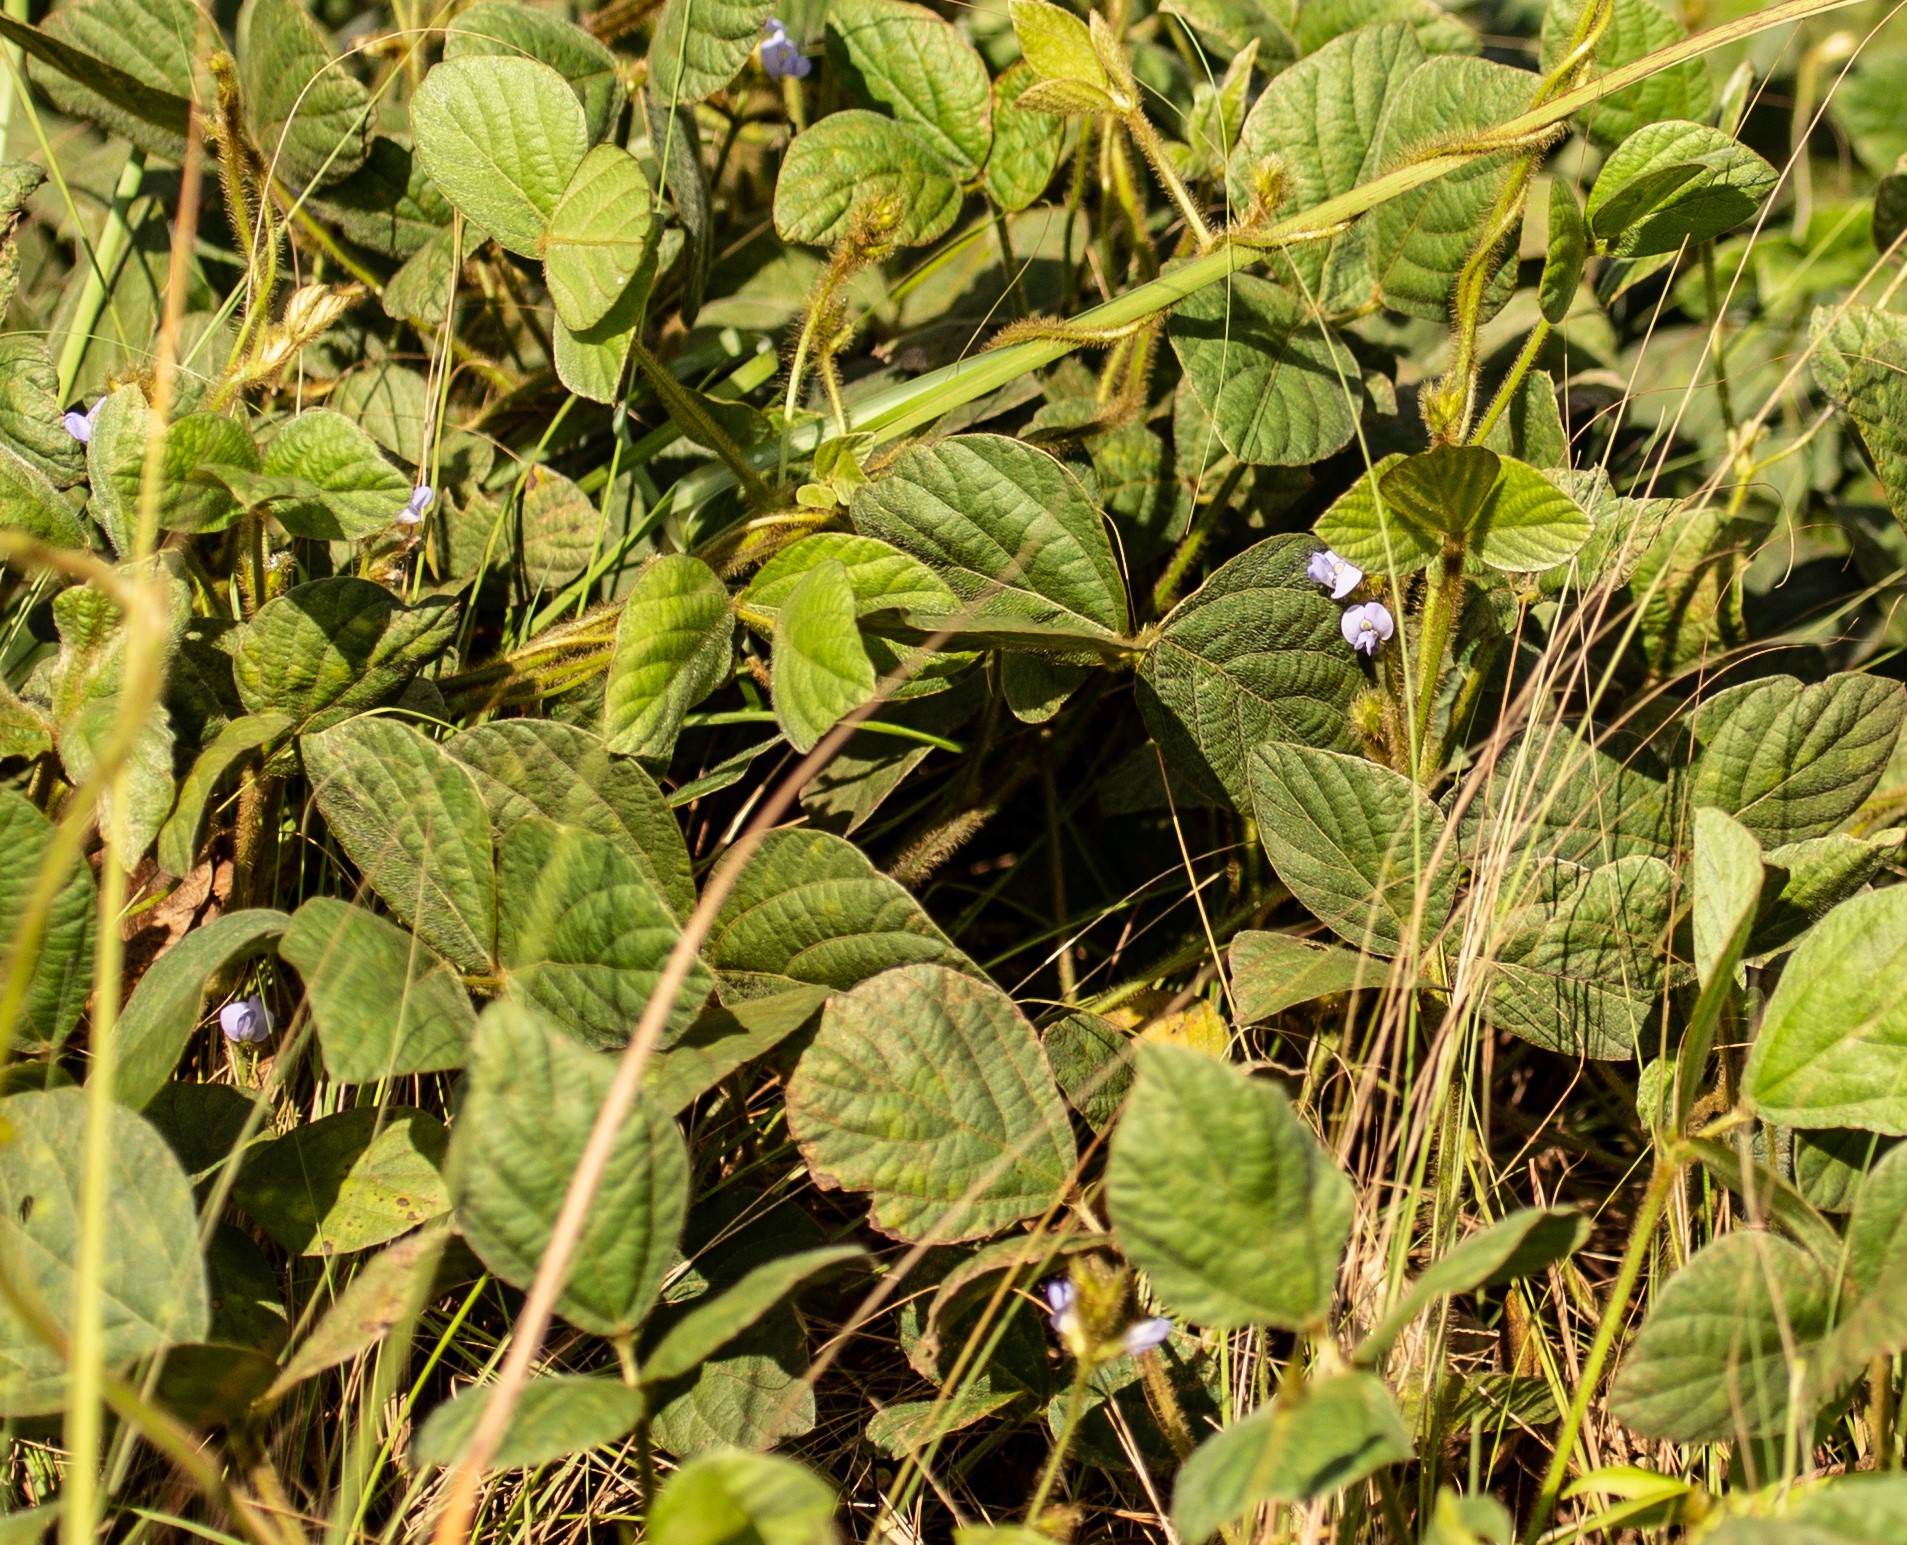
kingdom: Plantae
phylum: Tracheophyta
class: Magnoliopsida
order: Fabales
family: Fabaceae
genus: Calopogonium
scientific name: Calopogonium mucunoides
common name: Calopo
